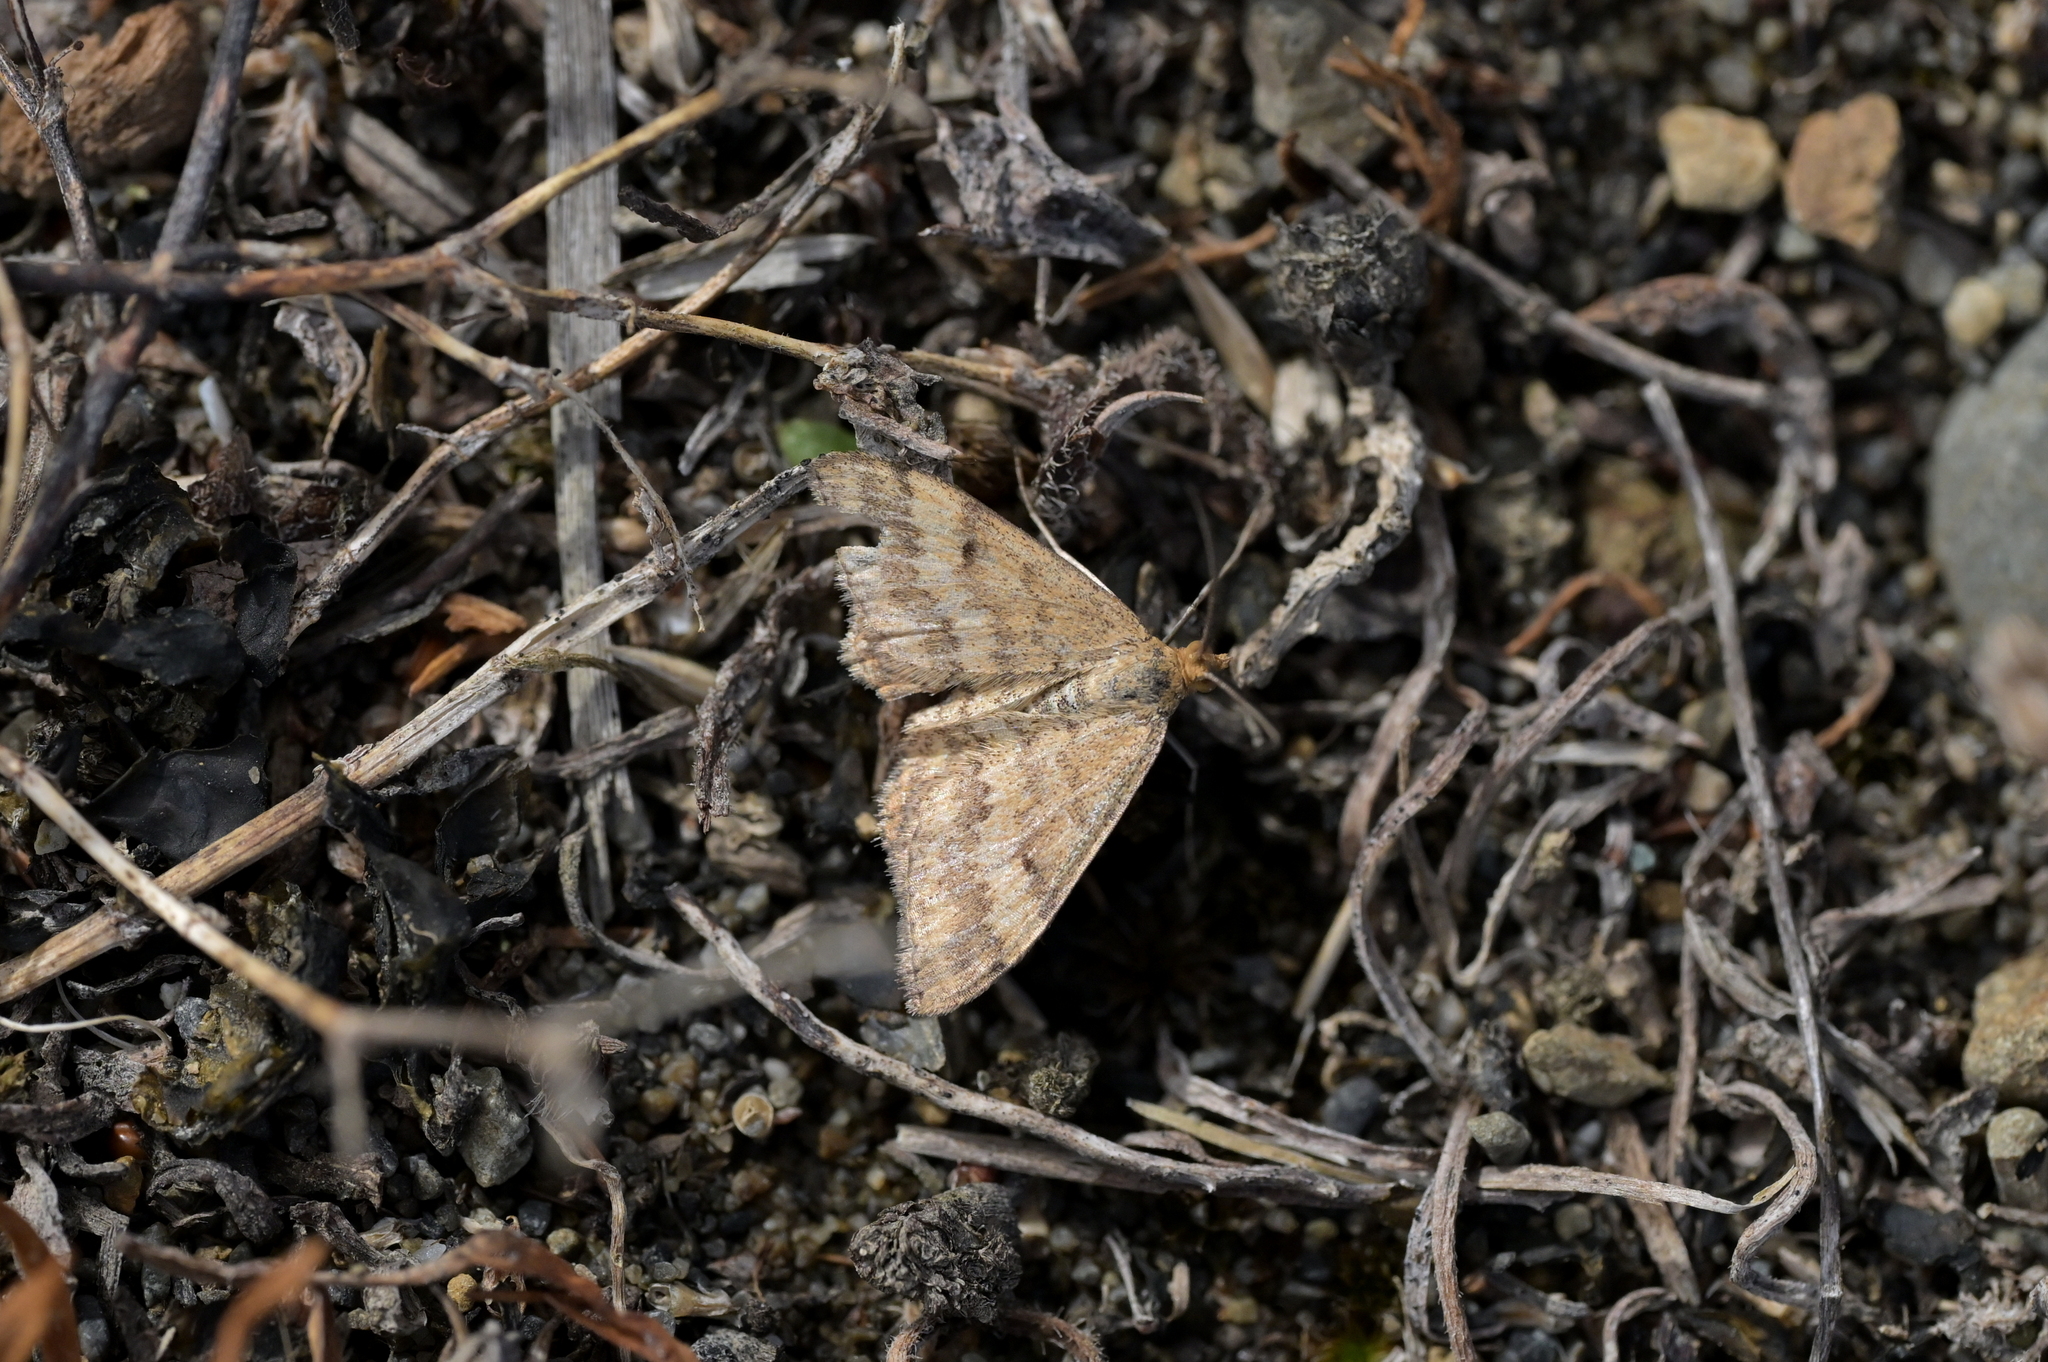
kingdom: Animalia
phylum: Arthropoda
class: Insecta
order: Lepidoptera
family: Geometridae
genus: Scopula
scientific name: Scopula rubraria
